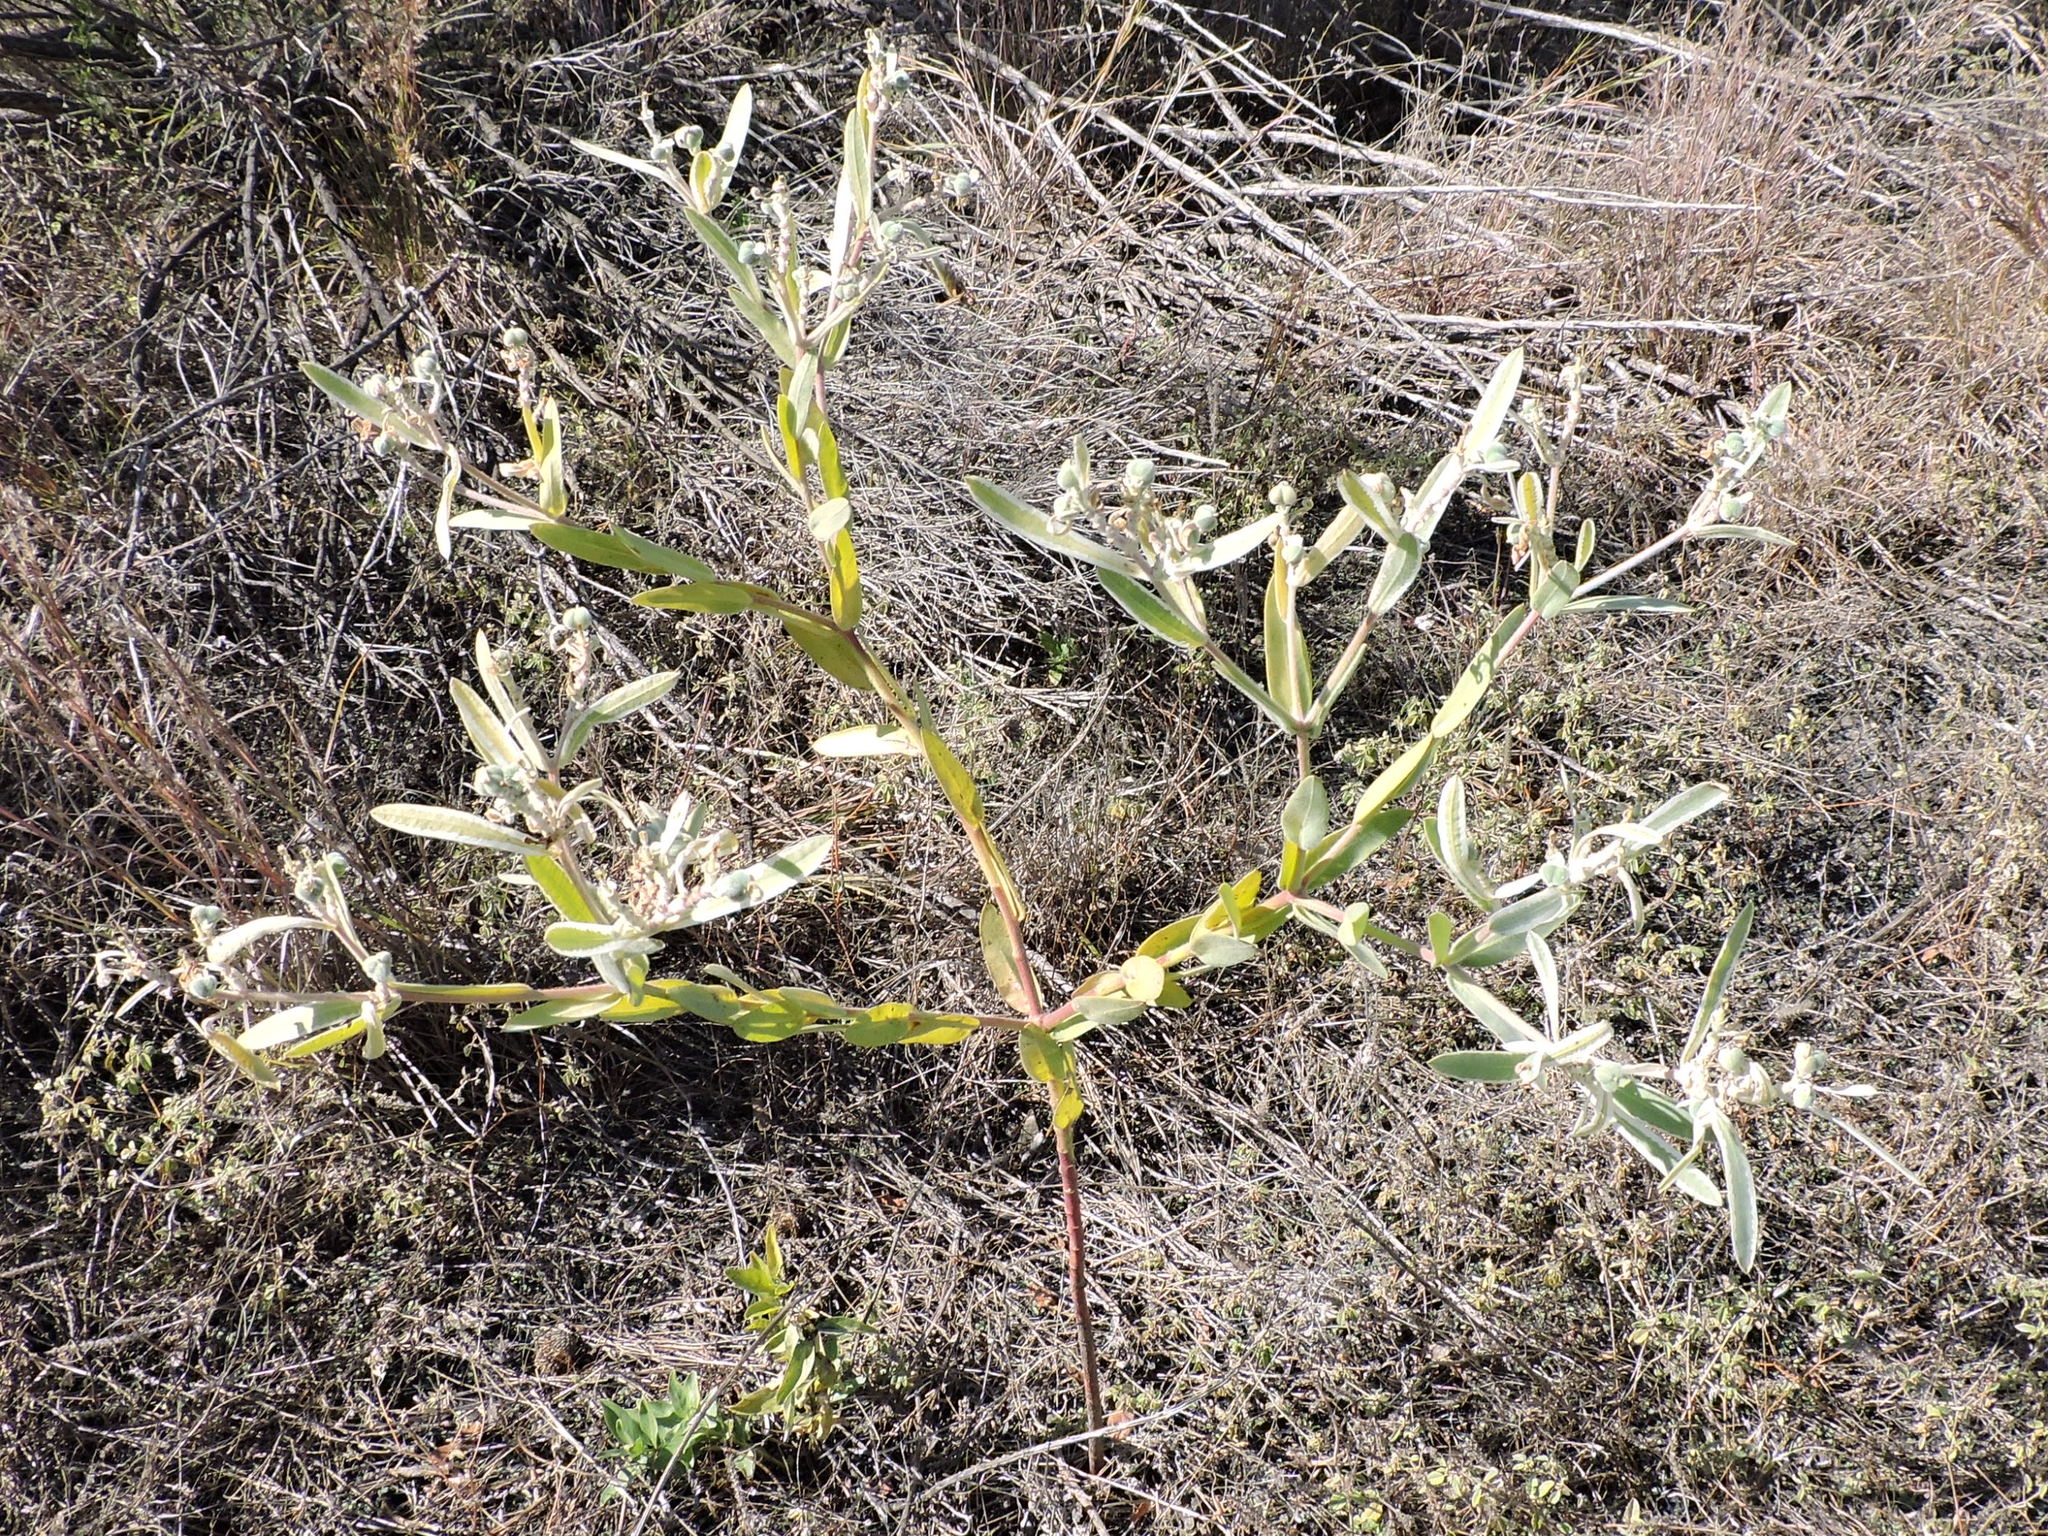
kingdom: Plantae
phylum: Tracheophyta
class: Magnoliopsida
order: Malpighiales
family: Euphorbiaceae
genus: Euphorbia
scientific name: Euphorbia bicolor
